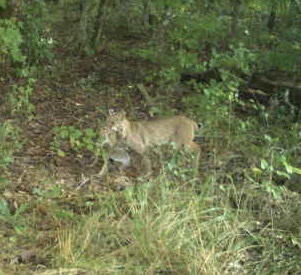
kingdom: Animalia
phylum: Chordata
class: Mammalia
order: Carnivora
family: Felidae
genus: Lynx
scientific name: Lynx rufus
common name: Bobcat
